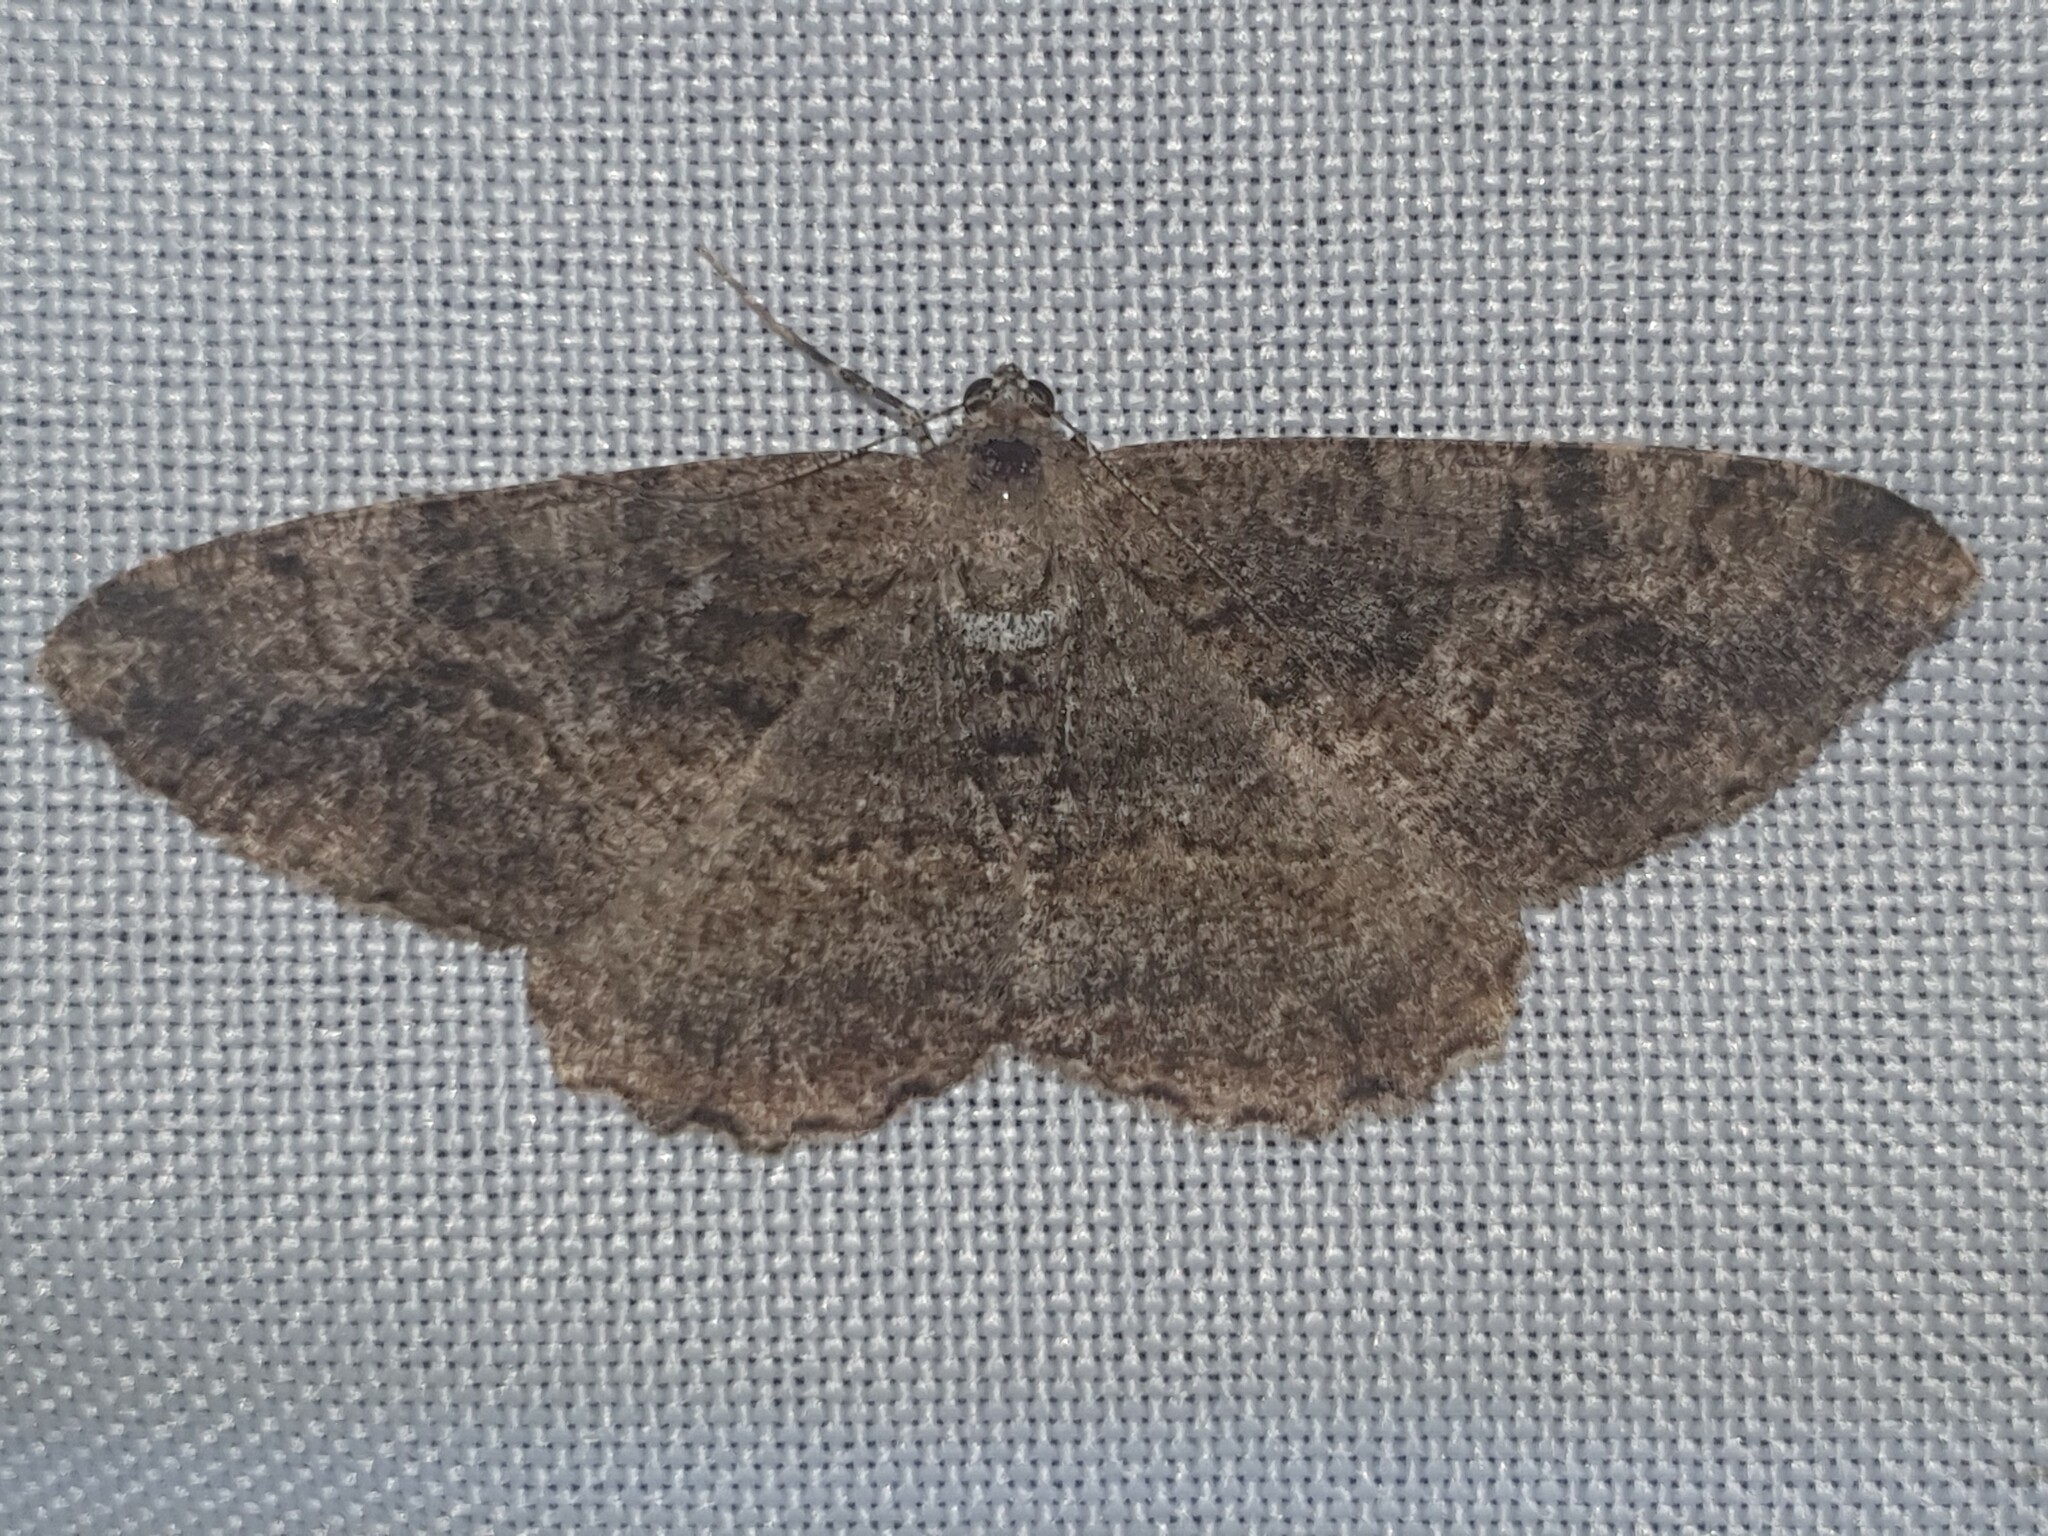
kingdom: Animalia
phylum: Arthropoda
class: Insecta
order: Lepidoptera
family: Geometridae
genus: Alcis
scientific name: Alcis repandata
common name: Mottled beauty
